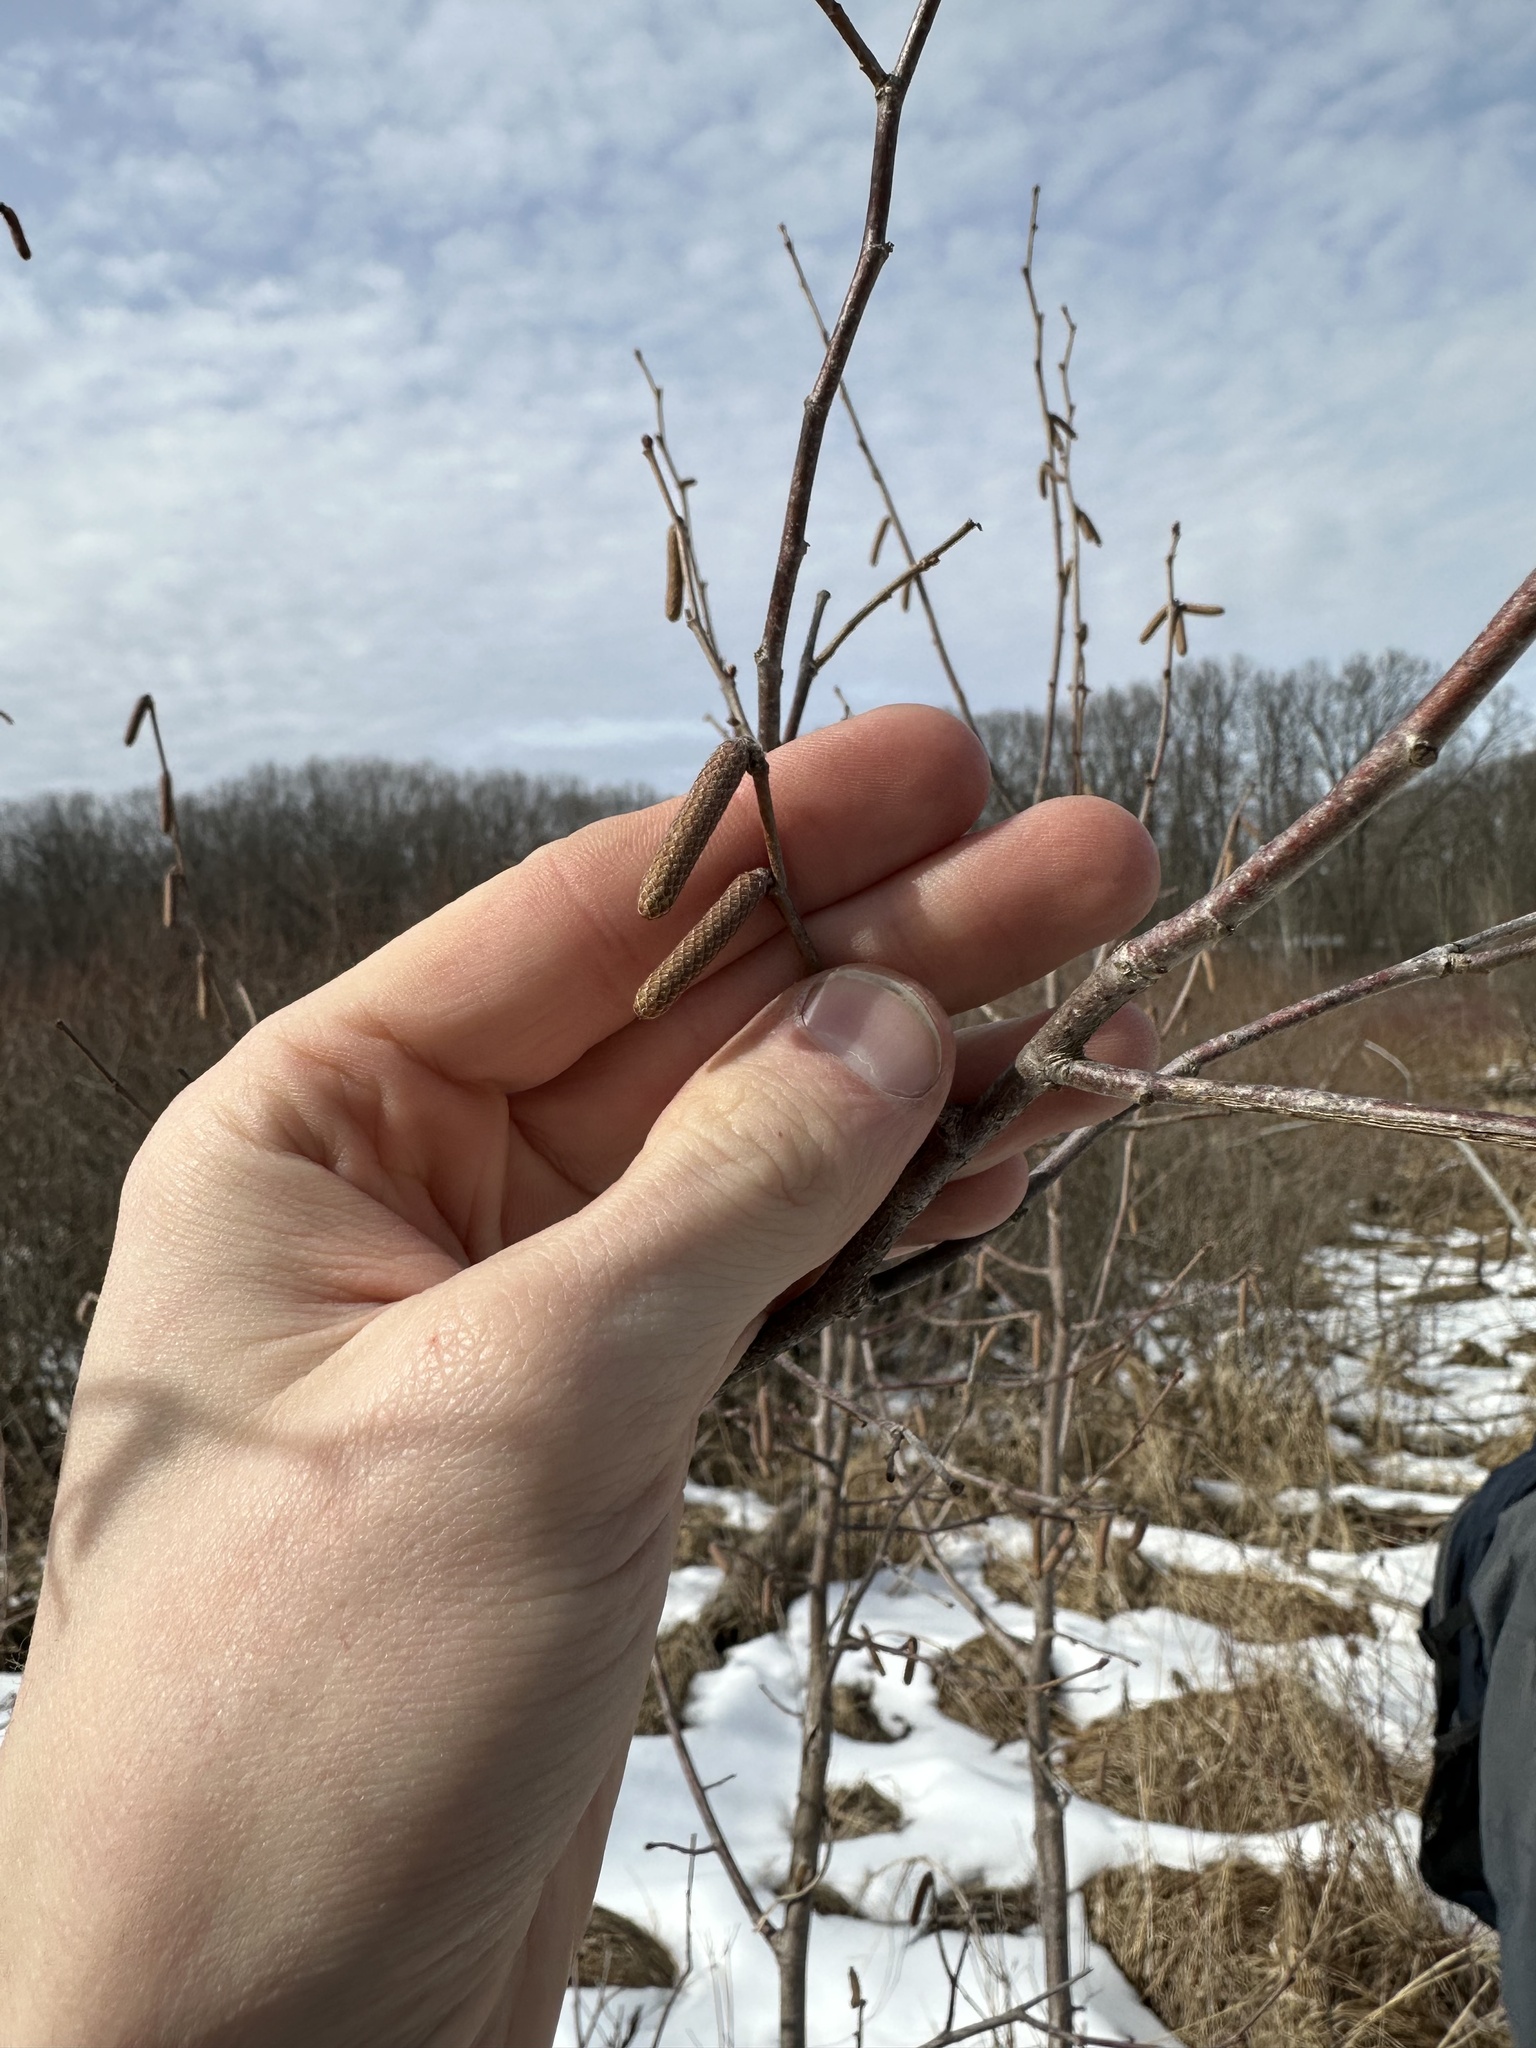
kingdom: Plantae
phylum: Tracheophyta
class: Magnoliopsida
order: Fagales
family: Betulaceae
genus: Corylus
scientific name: Corylus americana
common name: American hazel
